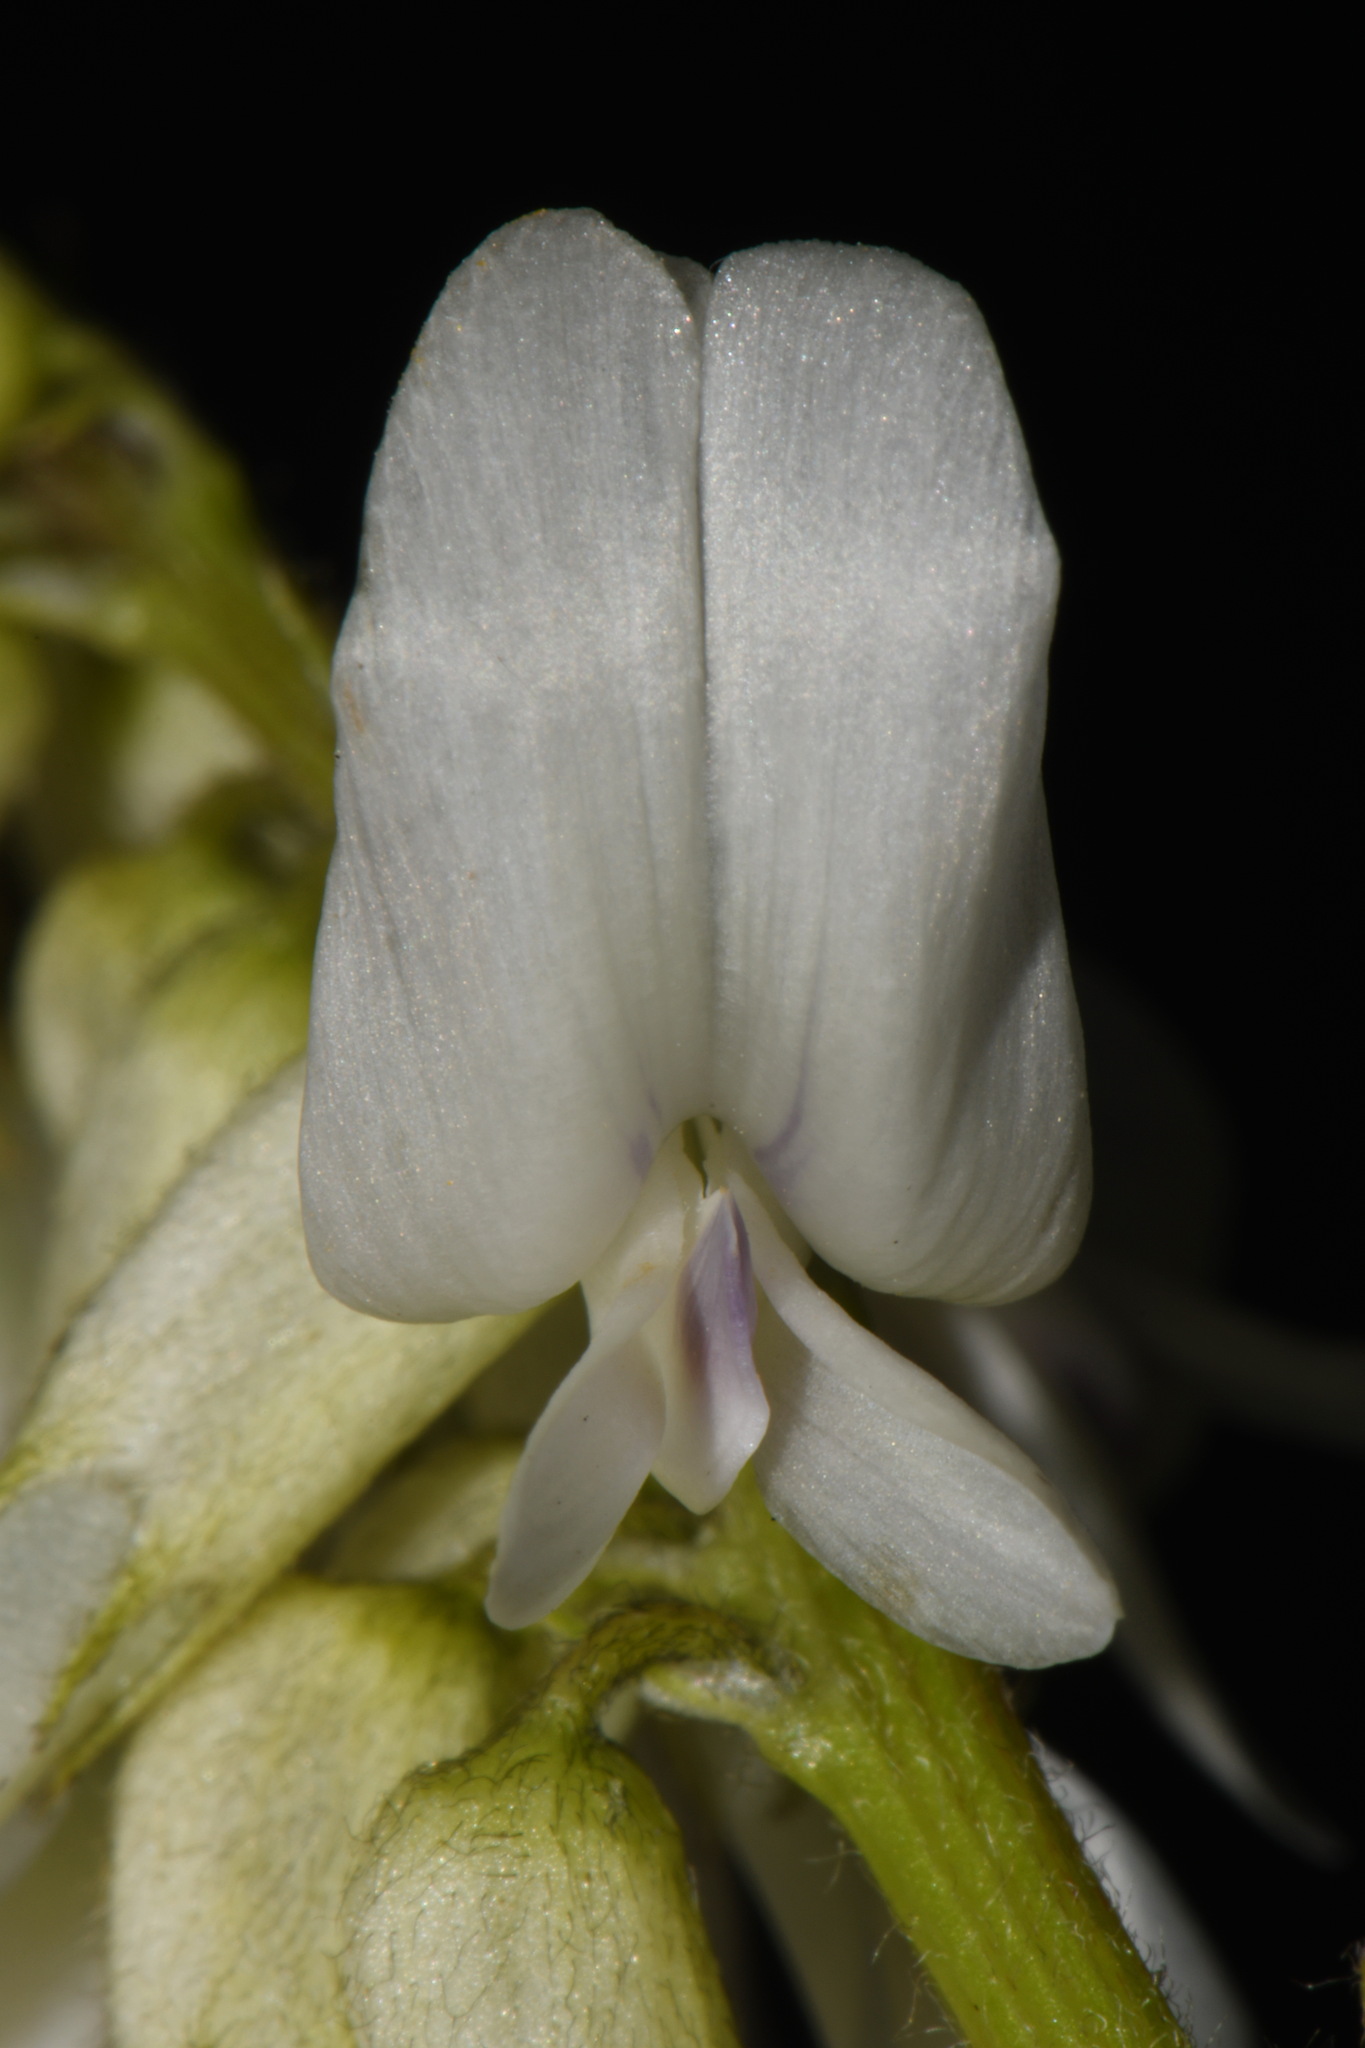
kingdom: Plantae
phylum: Tracheophyta
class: Magnoliopsida
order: Fabales
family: Fabaceae
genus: Astragalus
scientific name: Astragalus drummondii
